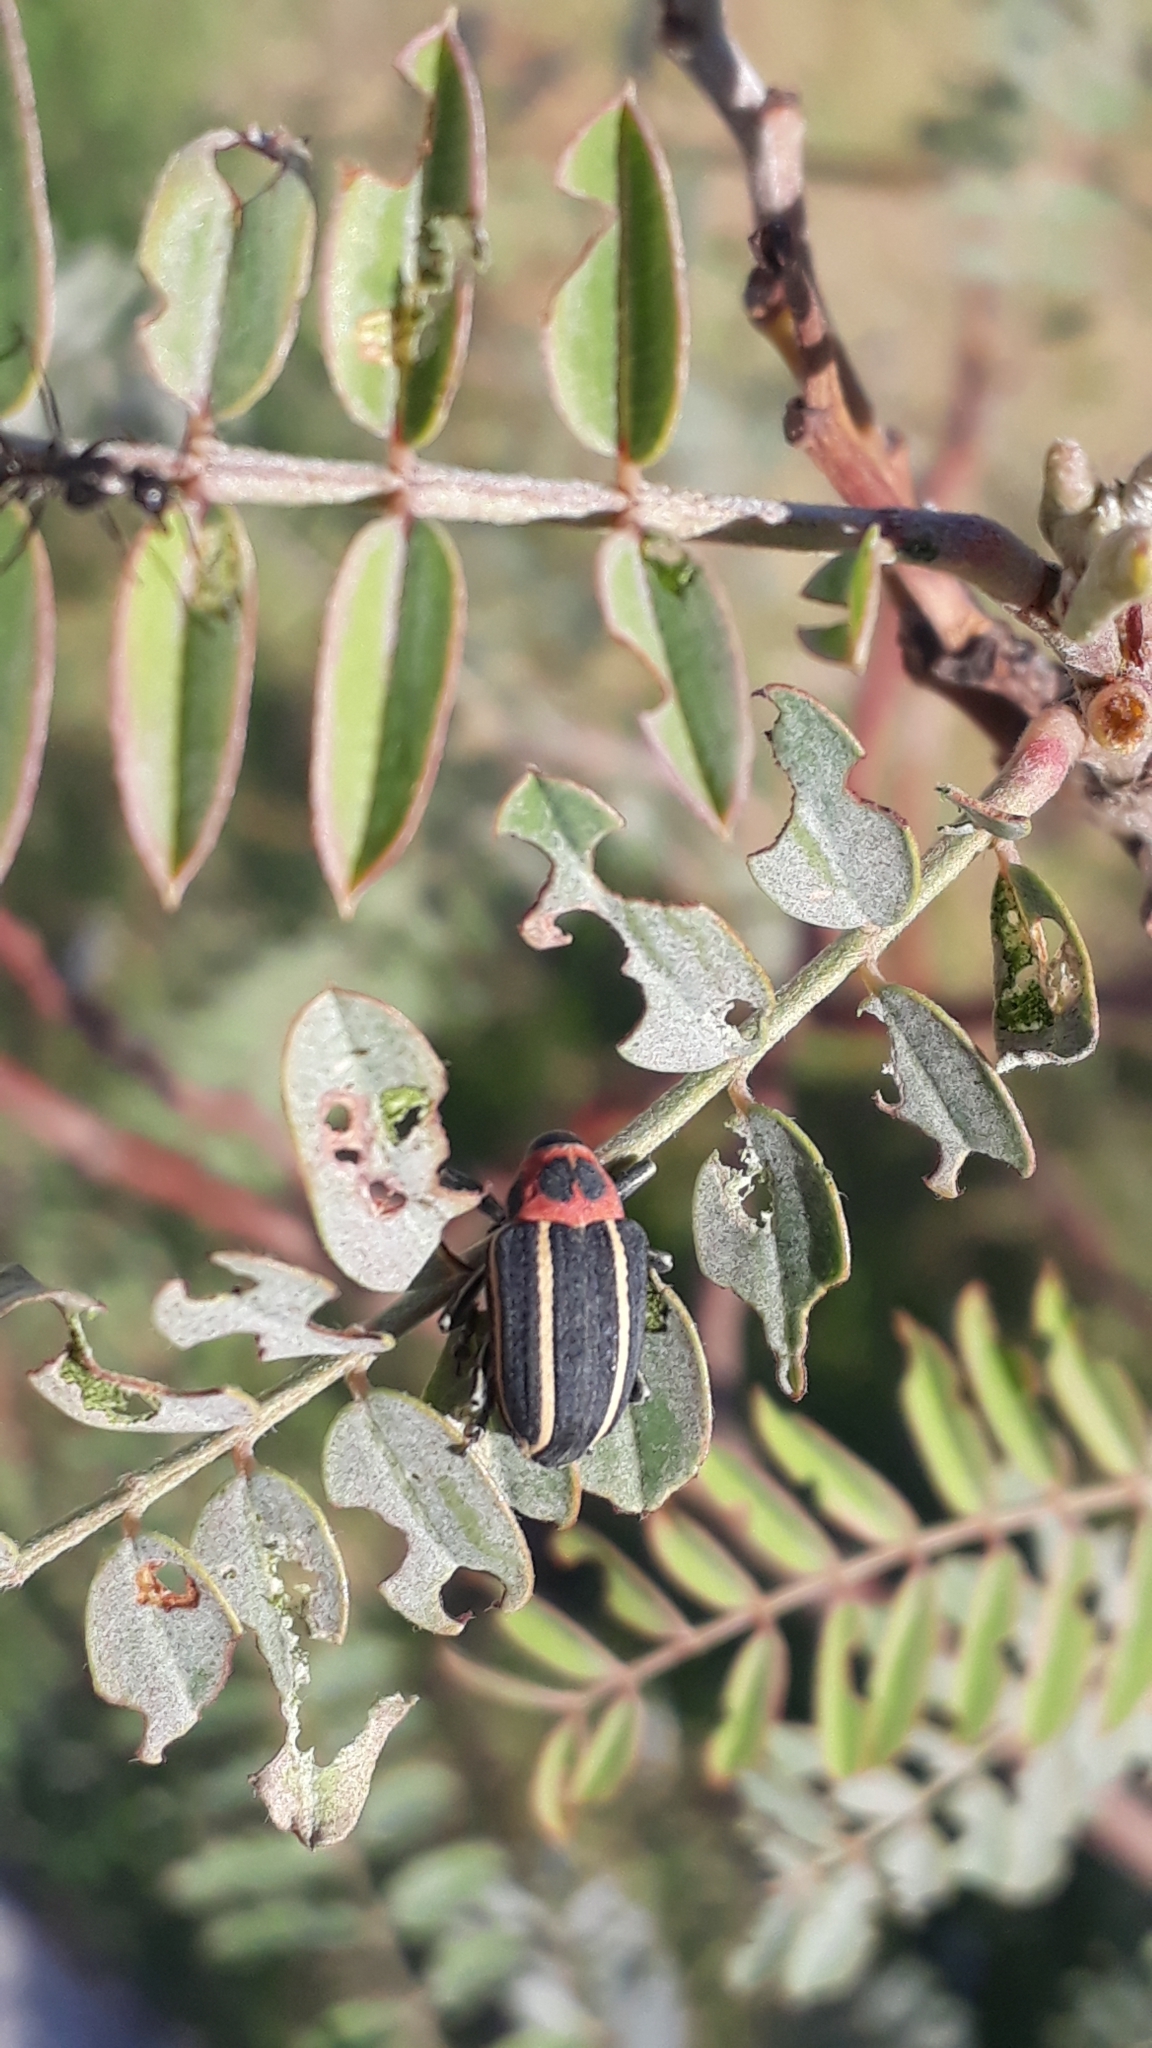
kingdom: Animalia
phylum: Arthropoda
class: Insecta
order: Coleoptera
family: Curculionidae
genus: Neodiplogrammus
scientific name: Neodiplogrammus
